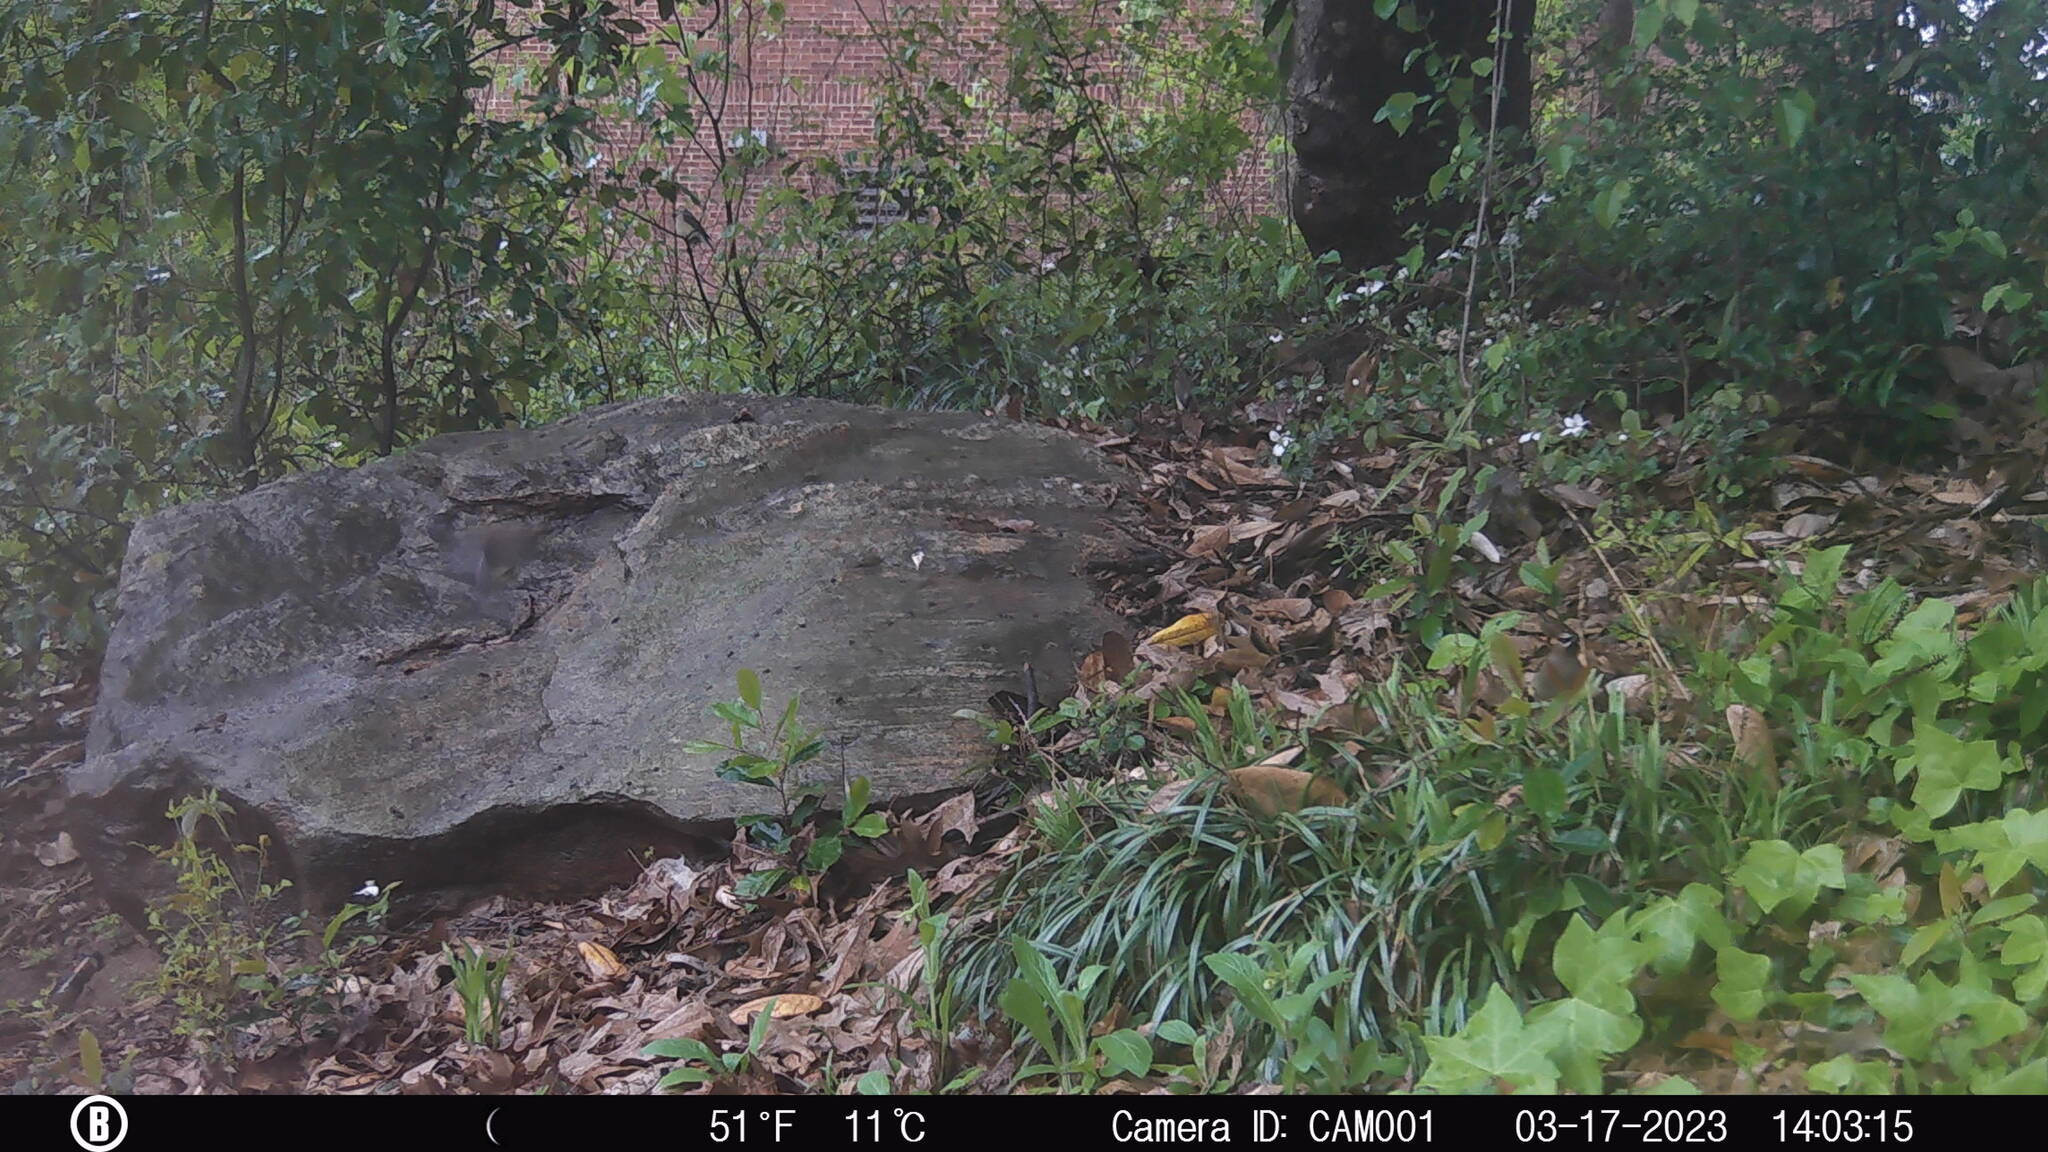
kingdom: Animalia
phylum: Chordata
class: Aves
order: Passeriformes
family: Bombycillidae
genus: Bombycilla
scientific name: Bombycilla cedrorum
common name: Cedar waxwing
